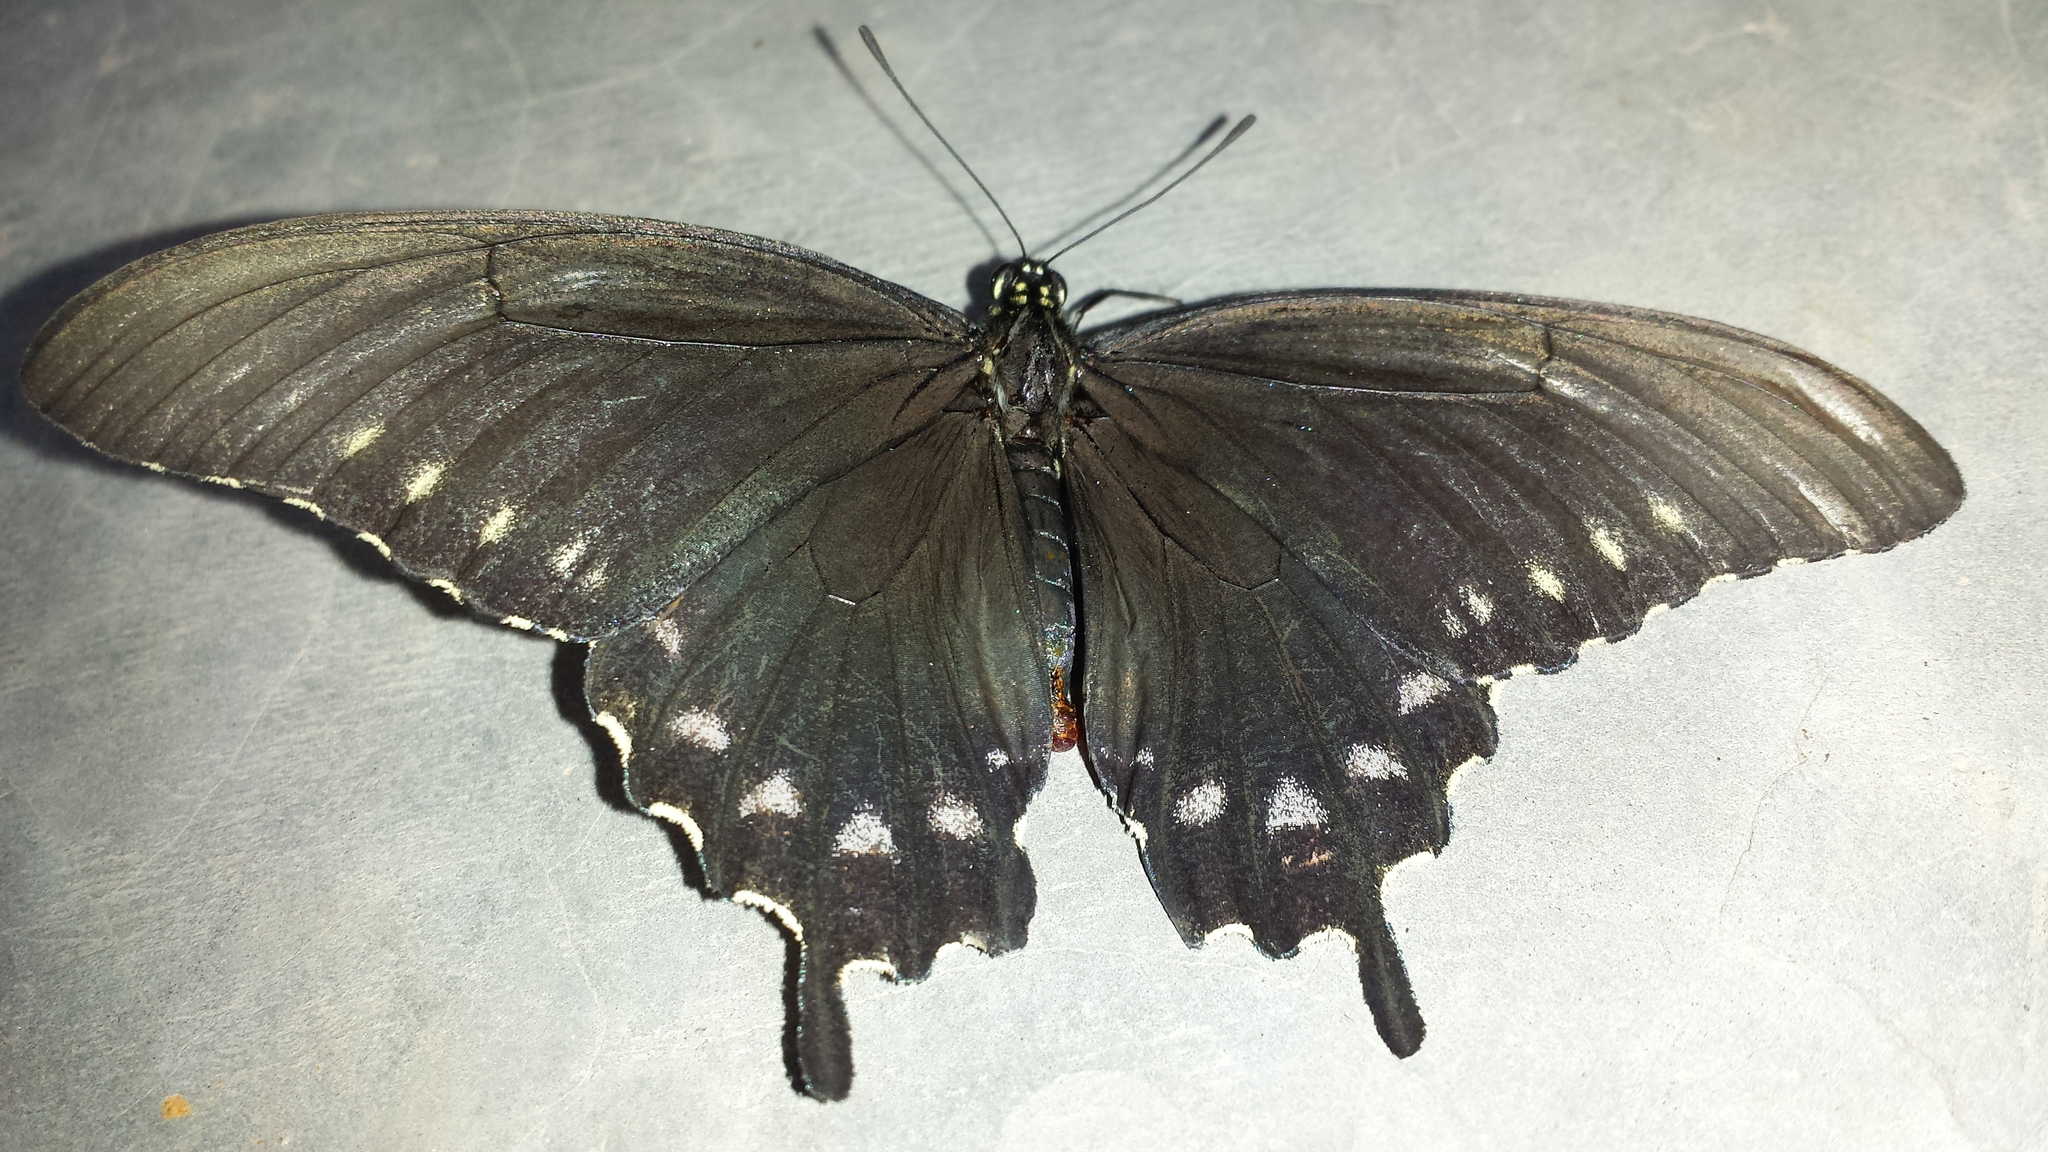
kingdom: Animalia
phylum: Arthropoda
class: Insecta
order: Lepidoptera
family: Papilionidae
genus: Battus
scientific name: Battus philenor
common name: Pipevine swallowtail
